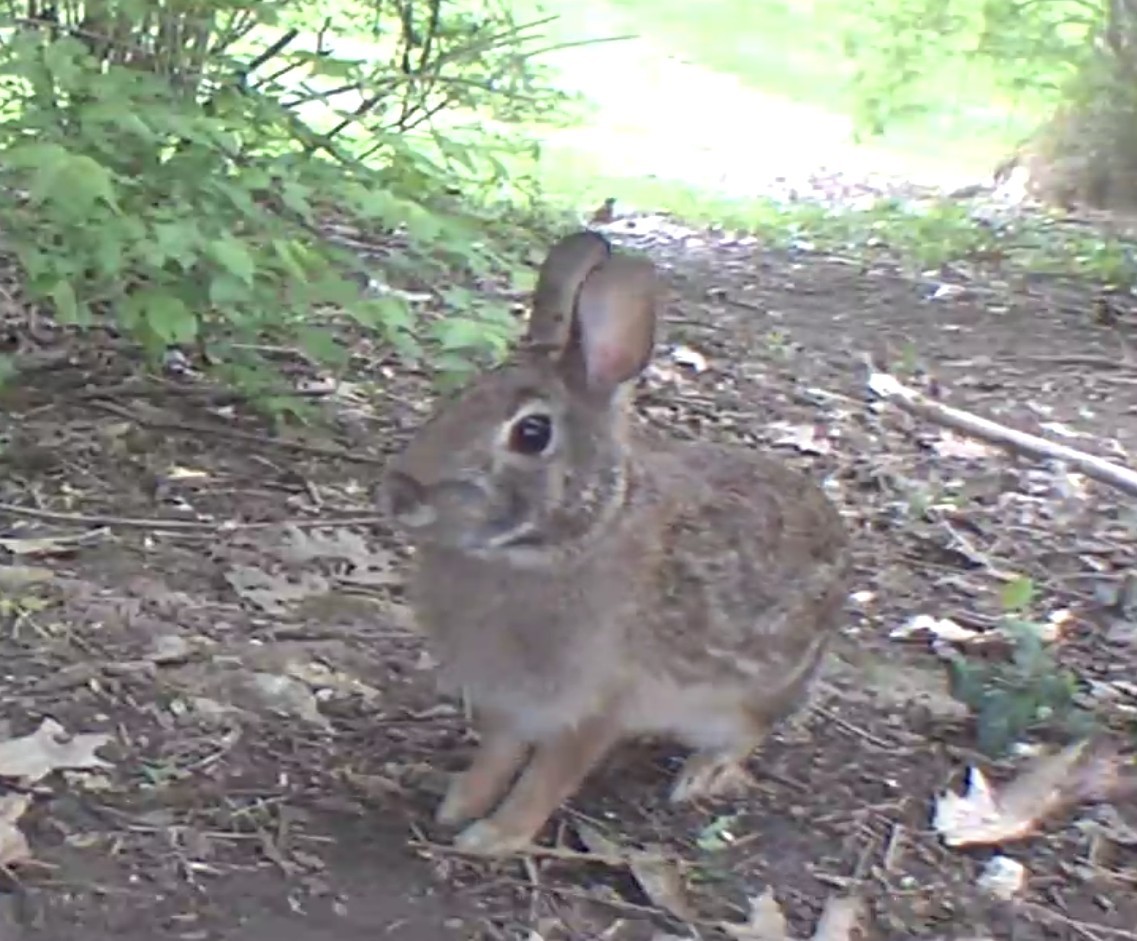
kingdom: Animalia
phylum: Chordata
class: Mammalia
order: Lagomorpha
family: Leporidae
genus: Sylvilagus
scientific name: Sylvilagus floridanus
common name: Eastern cottontail
